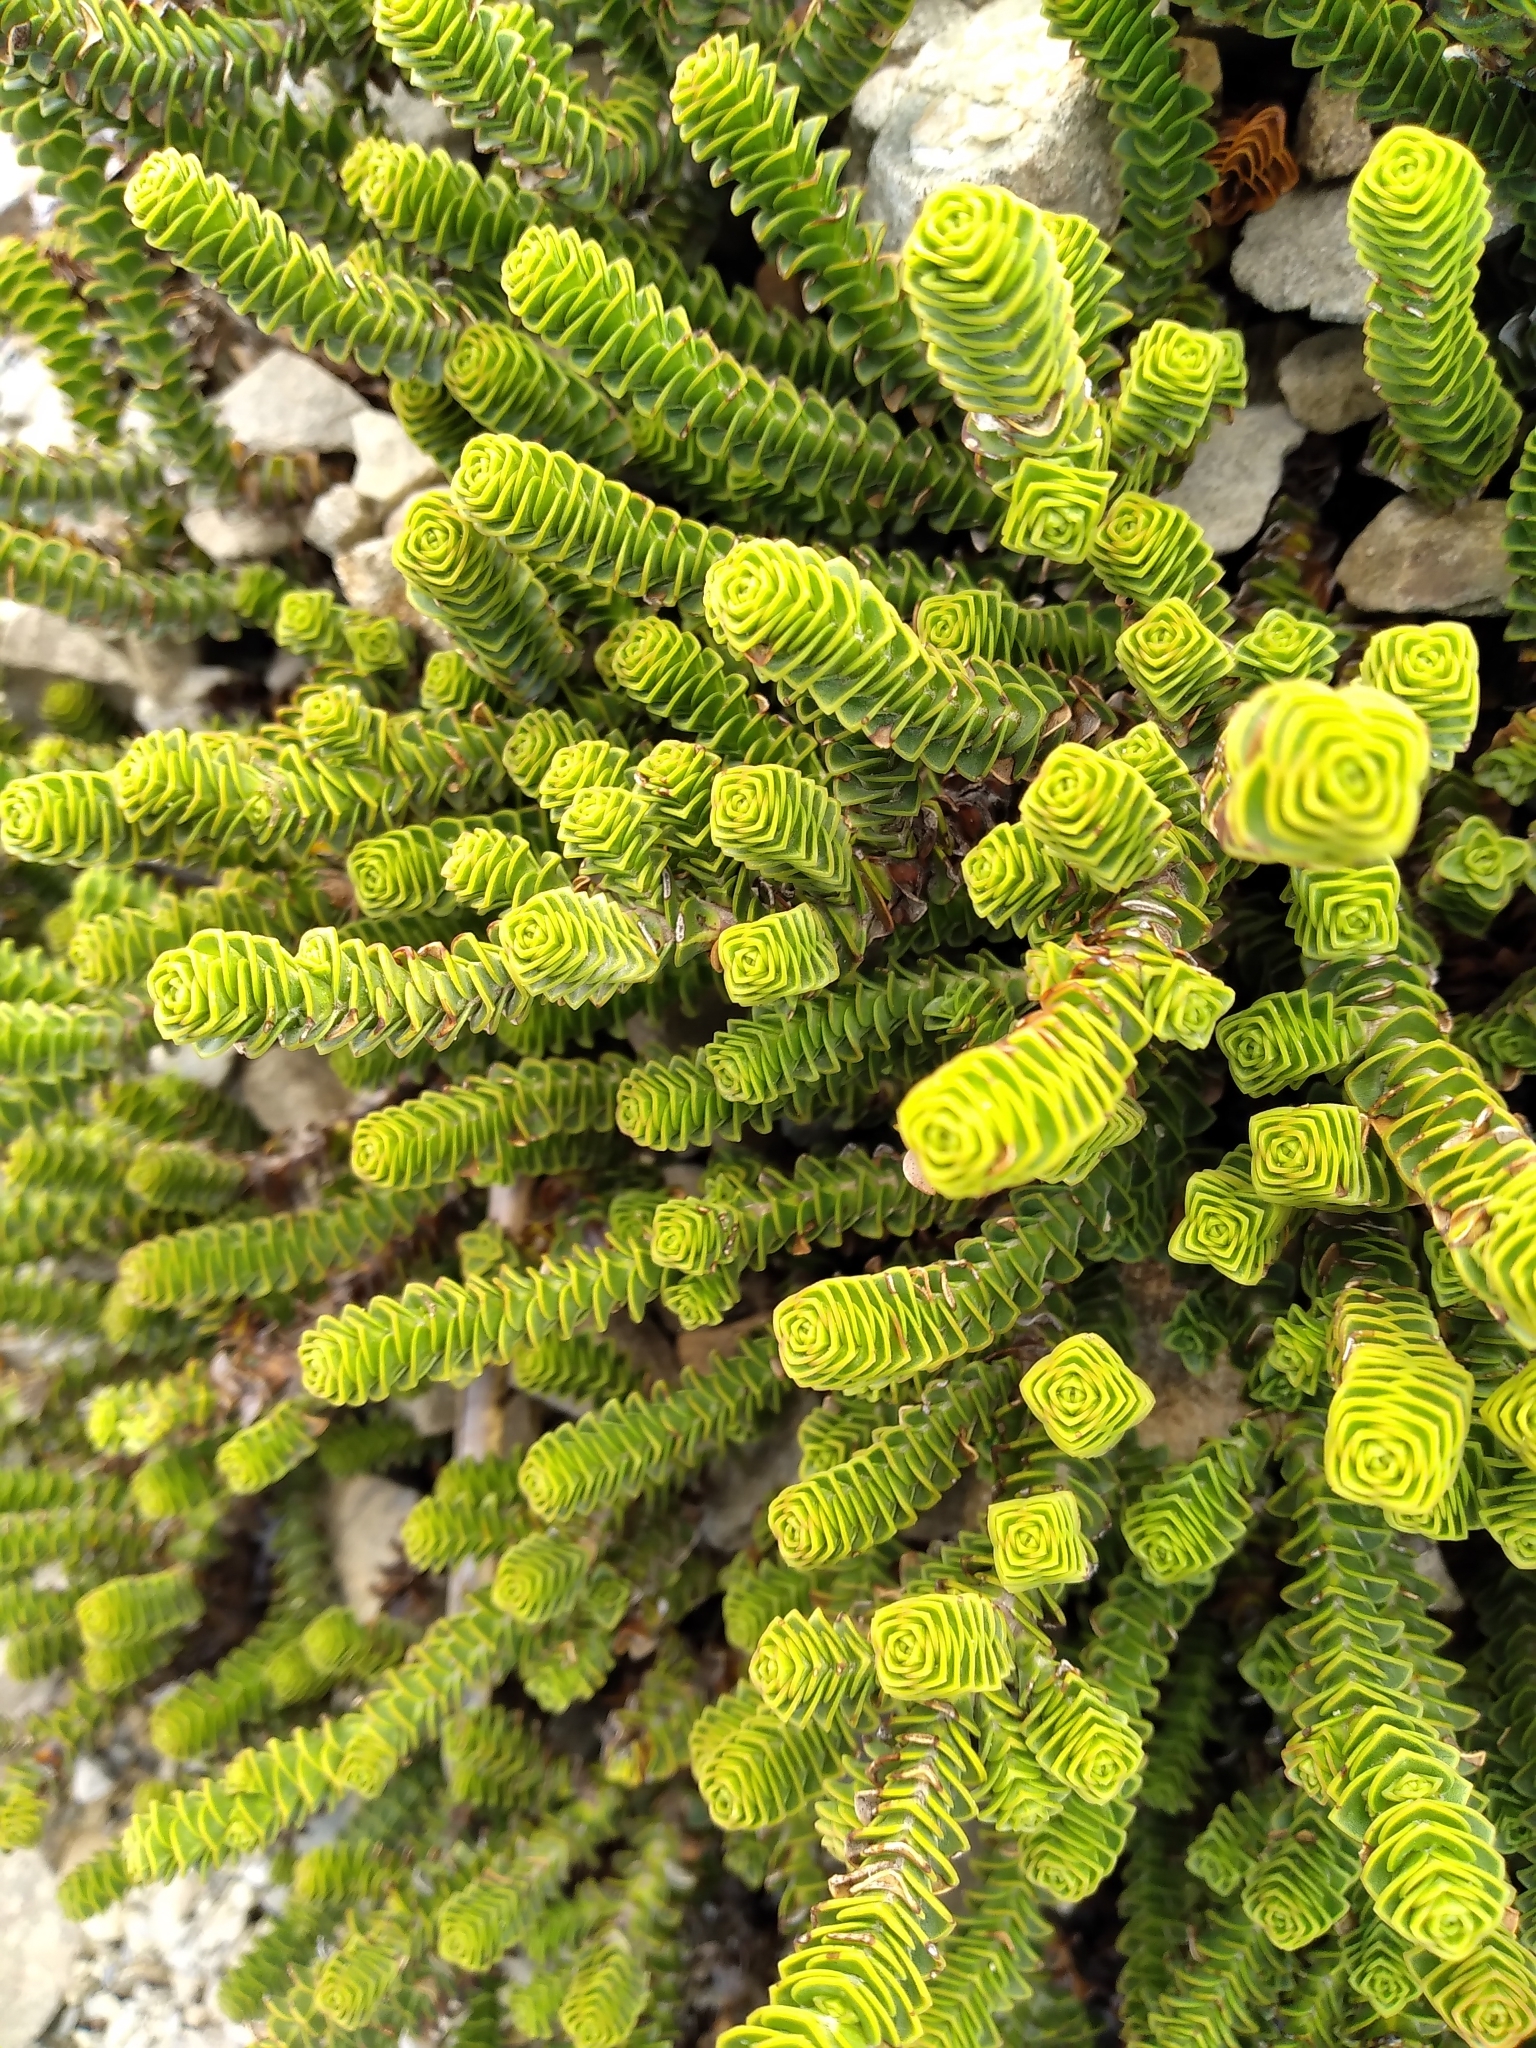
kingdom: Plantae
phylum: Tracheophyta
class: Magnoliopsida
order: Lamiales
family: Plantaginaceae
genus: Veronica
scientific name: Veronica epacridea
